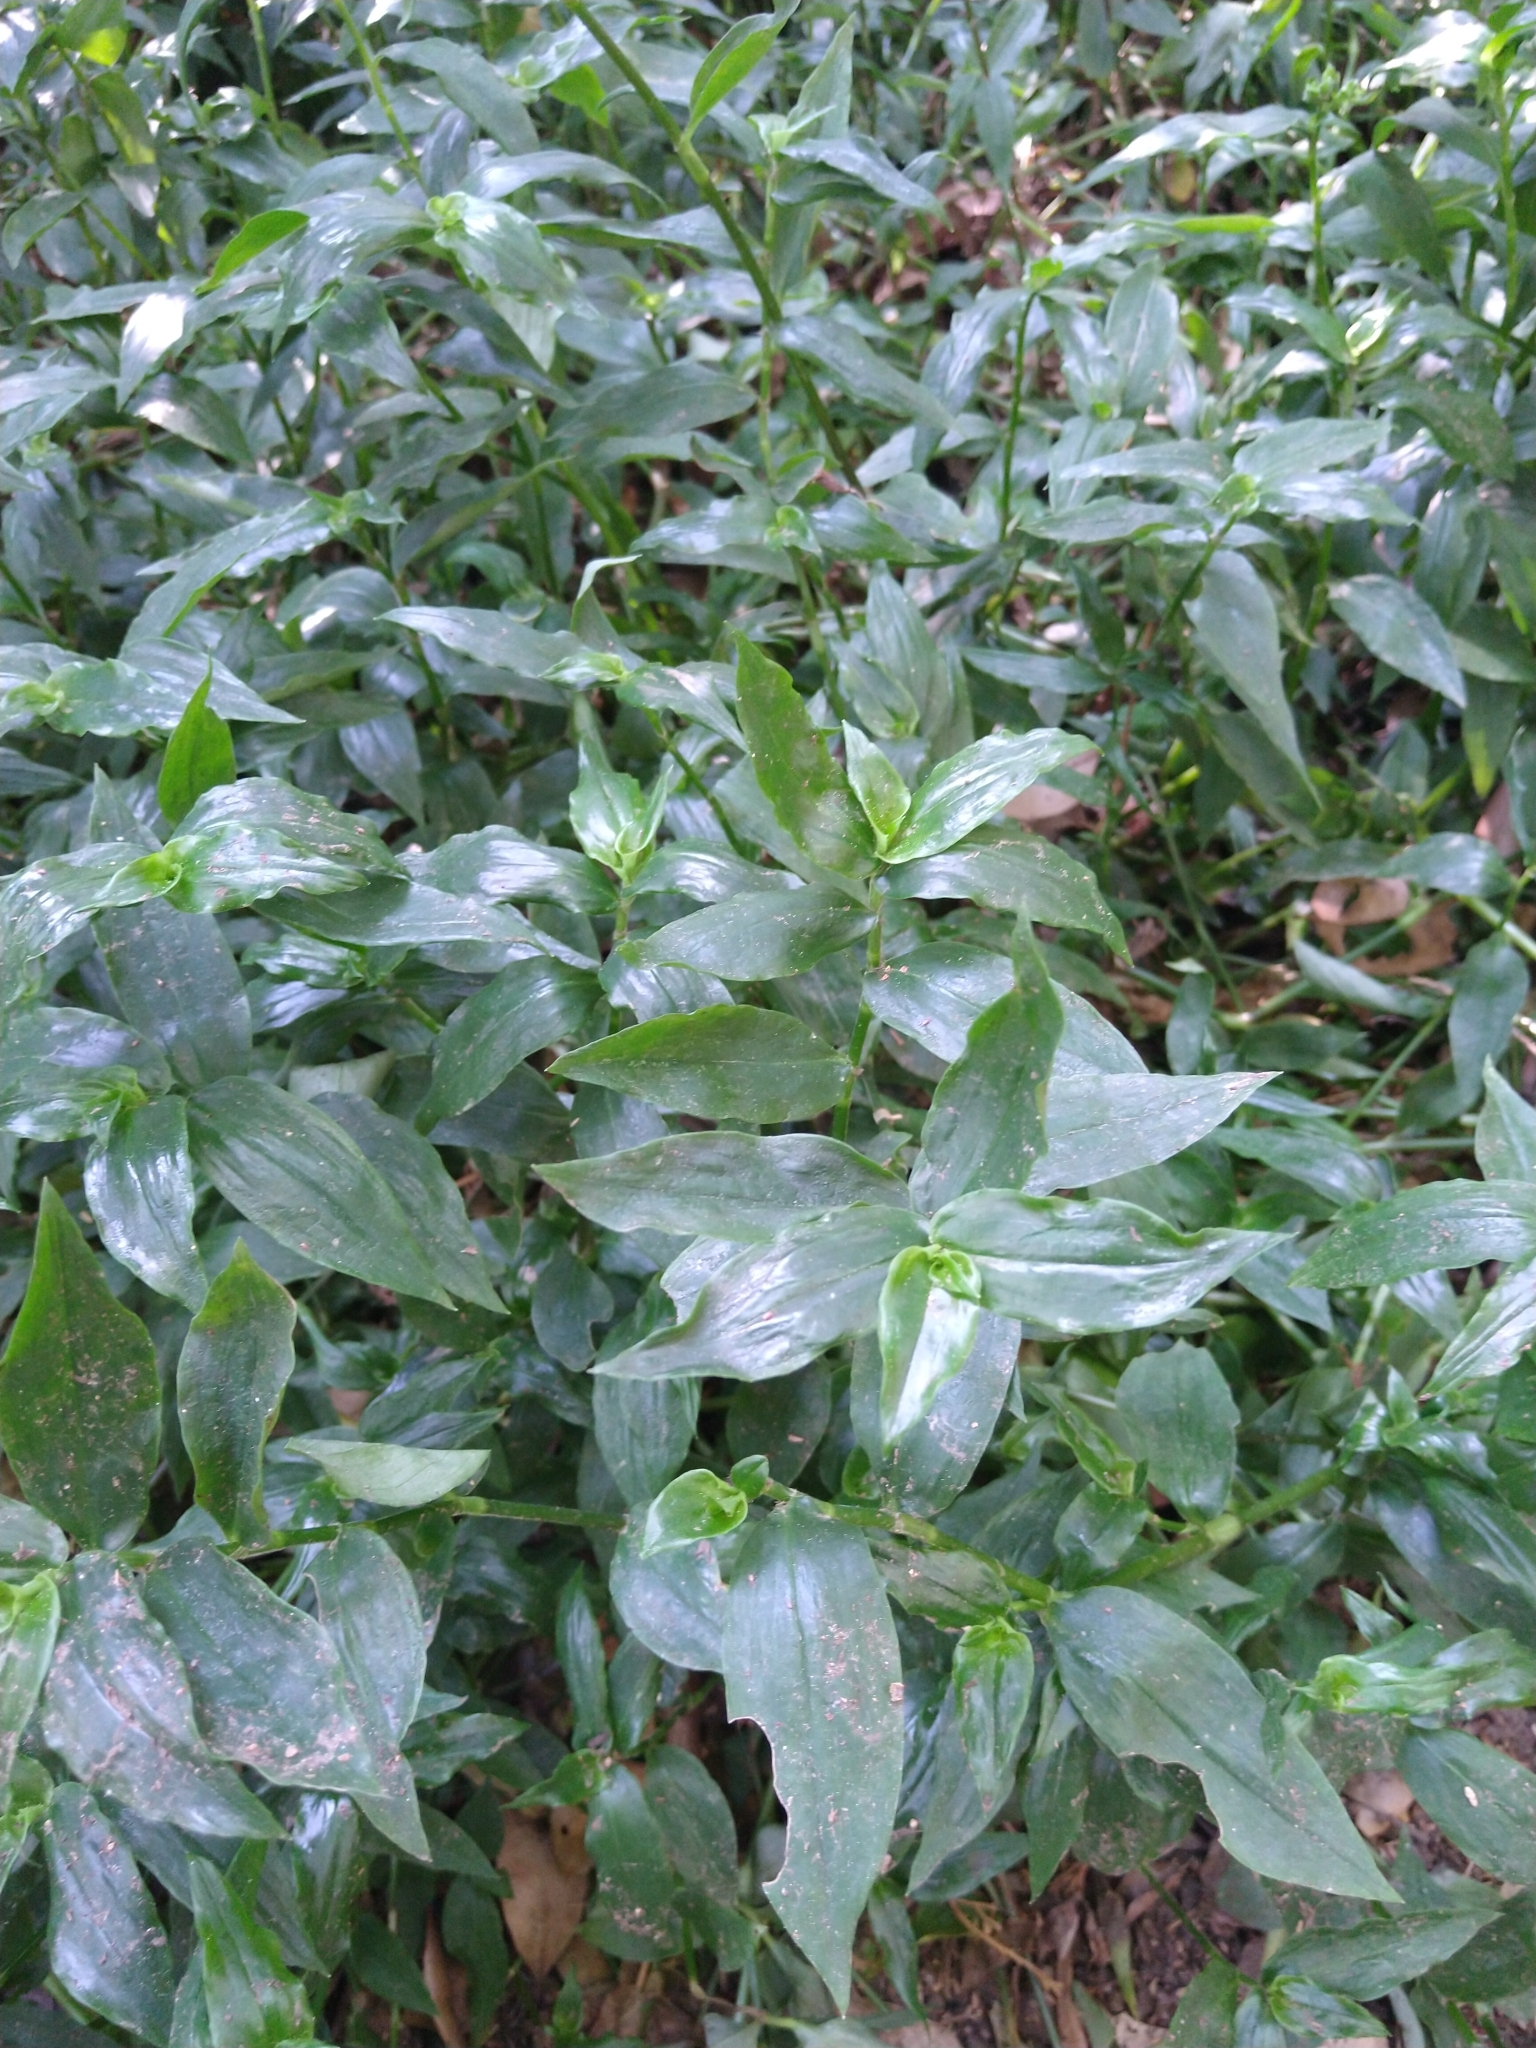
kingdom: Plantae
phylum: Tracheophyta
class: Liliopsida
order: Commelinales
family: Commelinaceae
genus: Tradescantia
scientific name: Tradescantia fluminensis
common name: Wandering-jew
